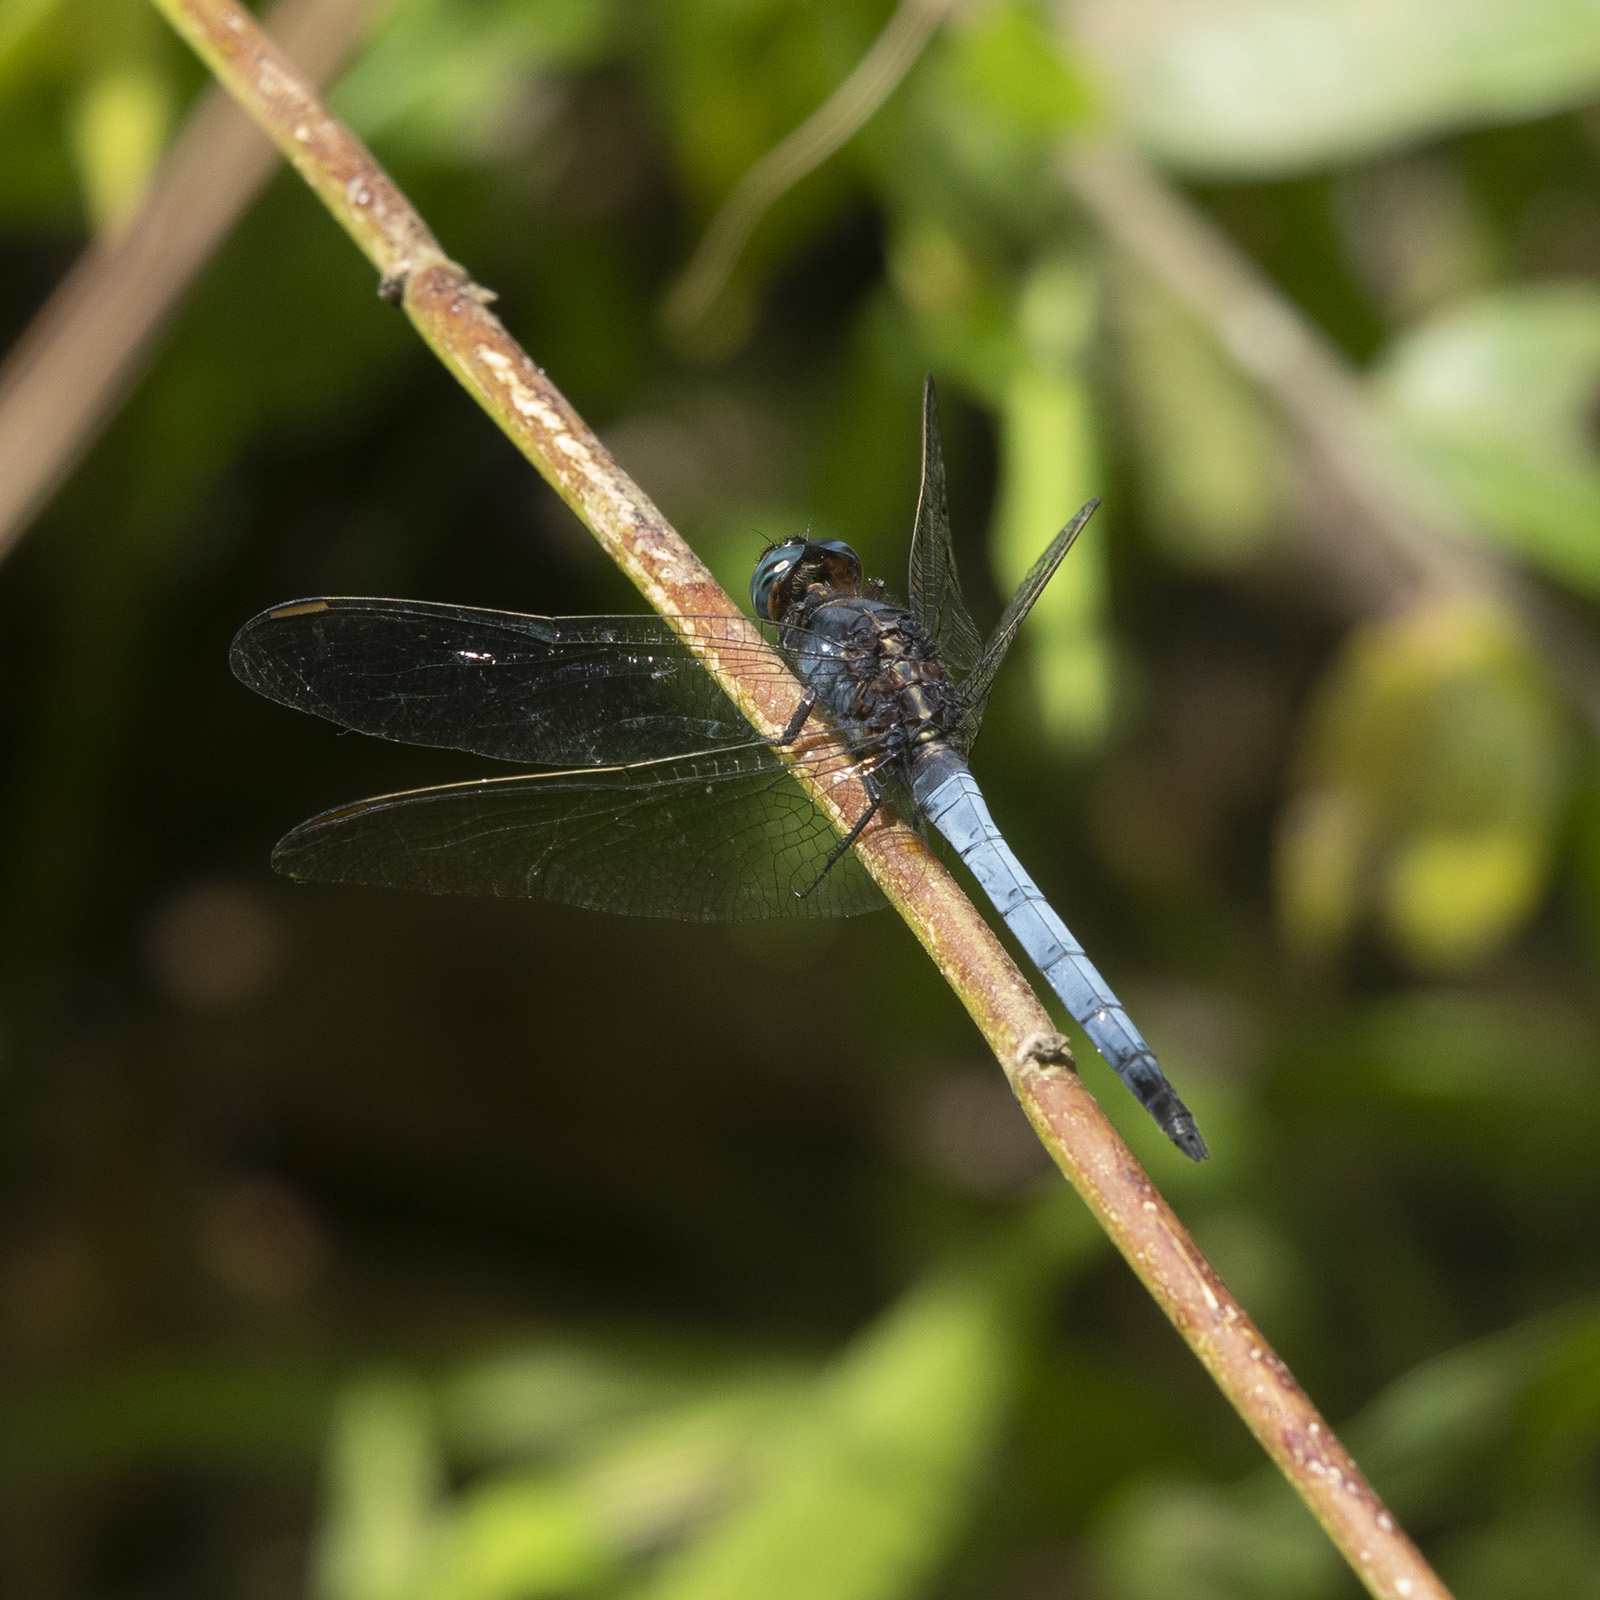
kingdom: Animalia
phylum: Arthropoda
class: Insecta
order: Odonata
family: Libellulidae
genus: Orthetrum
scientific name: Orthetrum glaucum
